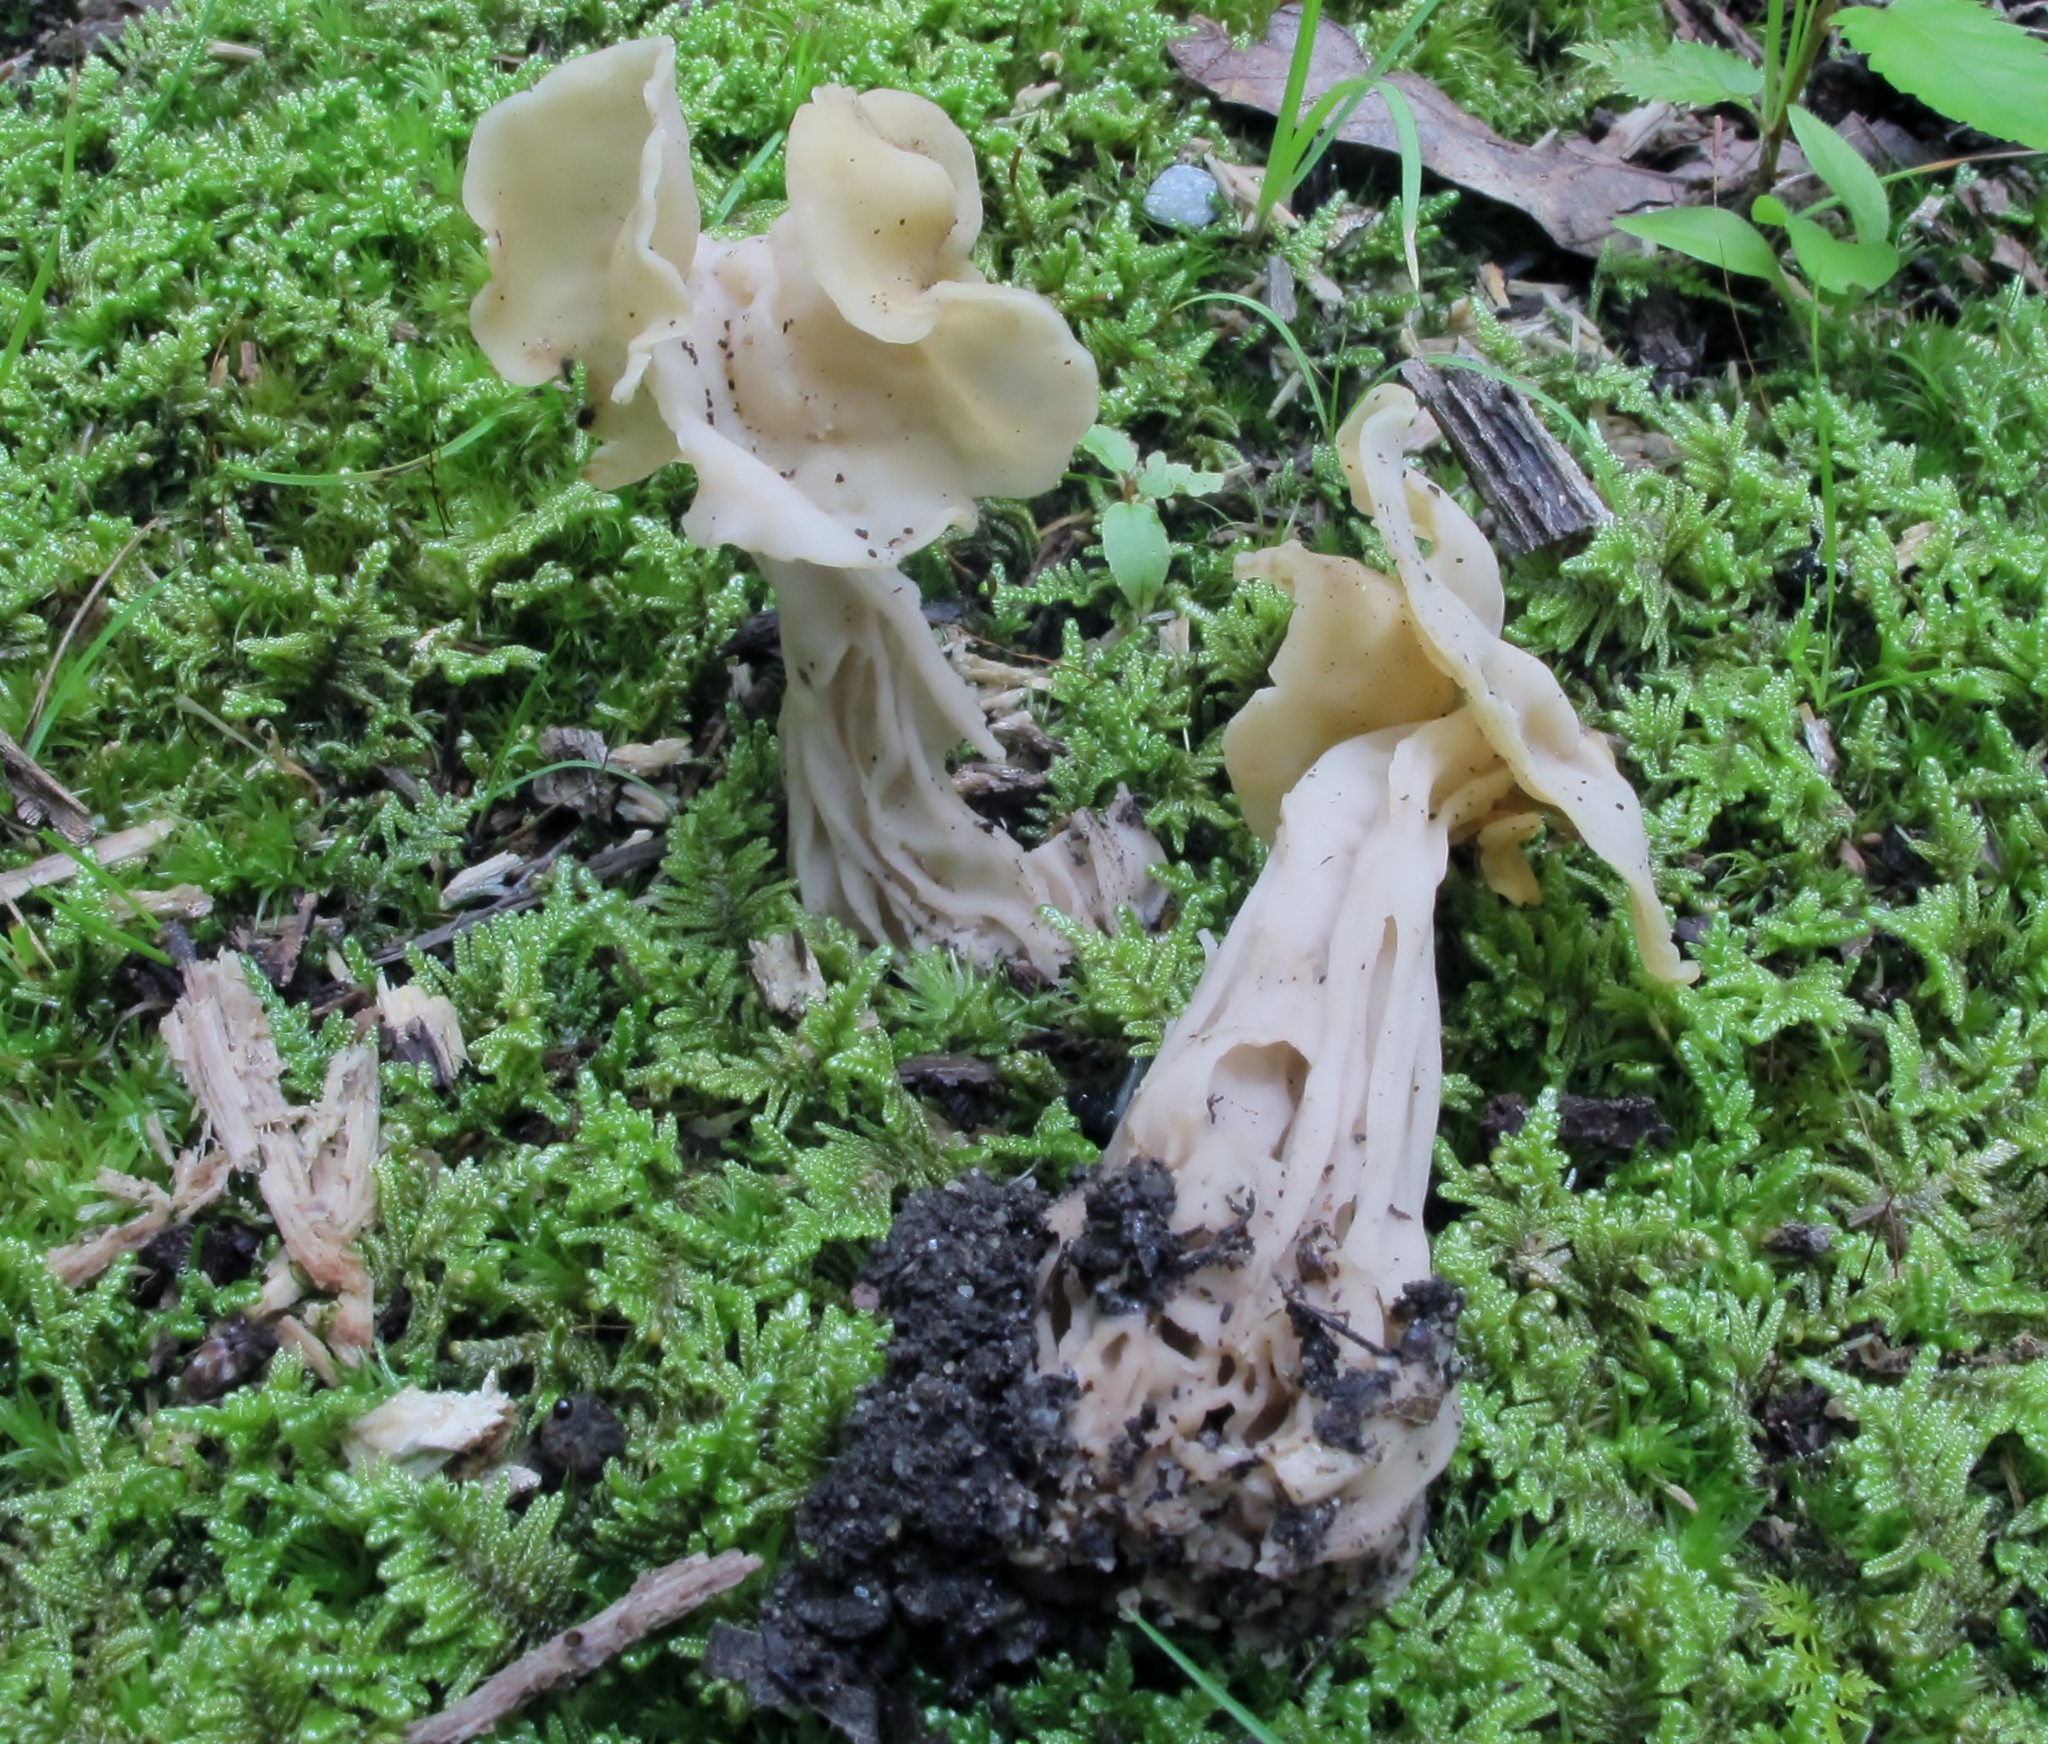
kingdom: Fungi
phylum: Ascomycota
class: Pezizomycetes
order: Pezizales
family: Helvellaceae
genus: Helvella
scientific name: Helvella crispa
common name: White saddle
